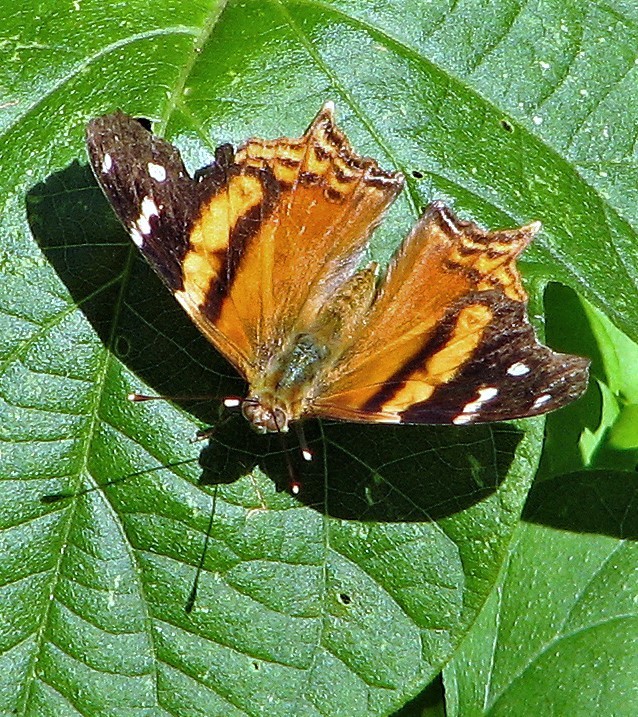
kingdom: Animalia
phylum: Arthropoda
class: Insecta
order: Lepidoptera
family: Nymphalidae
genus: Hypanartia
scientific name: Hypanartia bella
